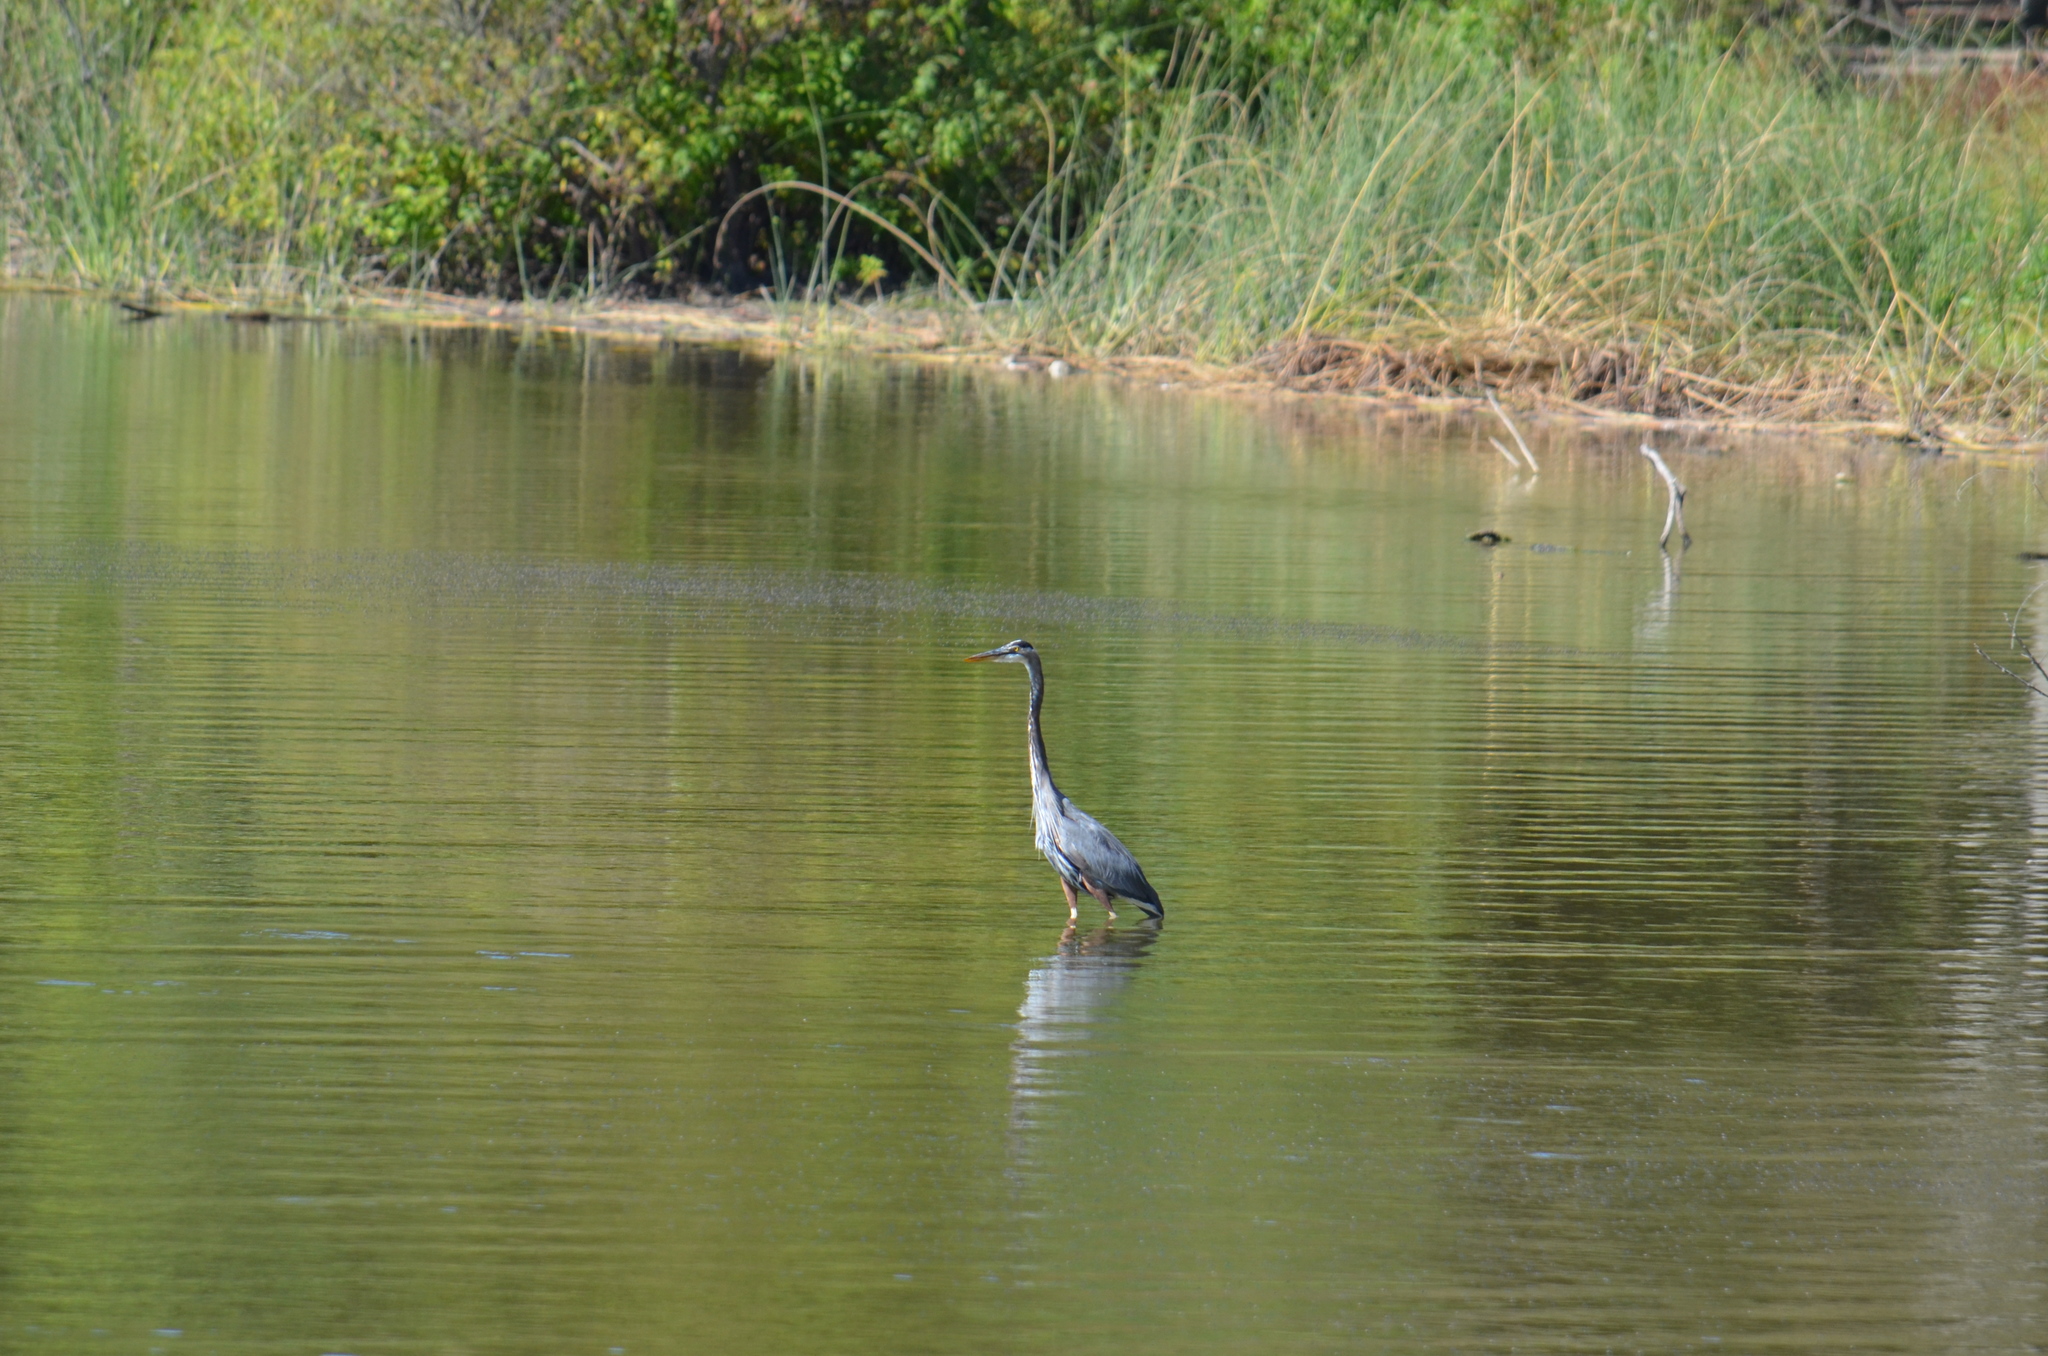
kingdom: Animalia
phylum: Chordata
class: Aves
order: Pelecaniformes
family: Ardeidae
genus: Ardea
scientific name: Ardea herodias
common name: Great blue heron
